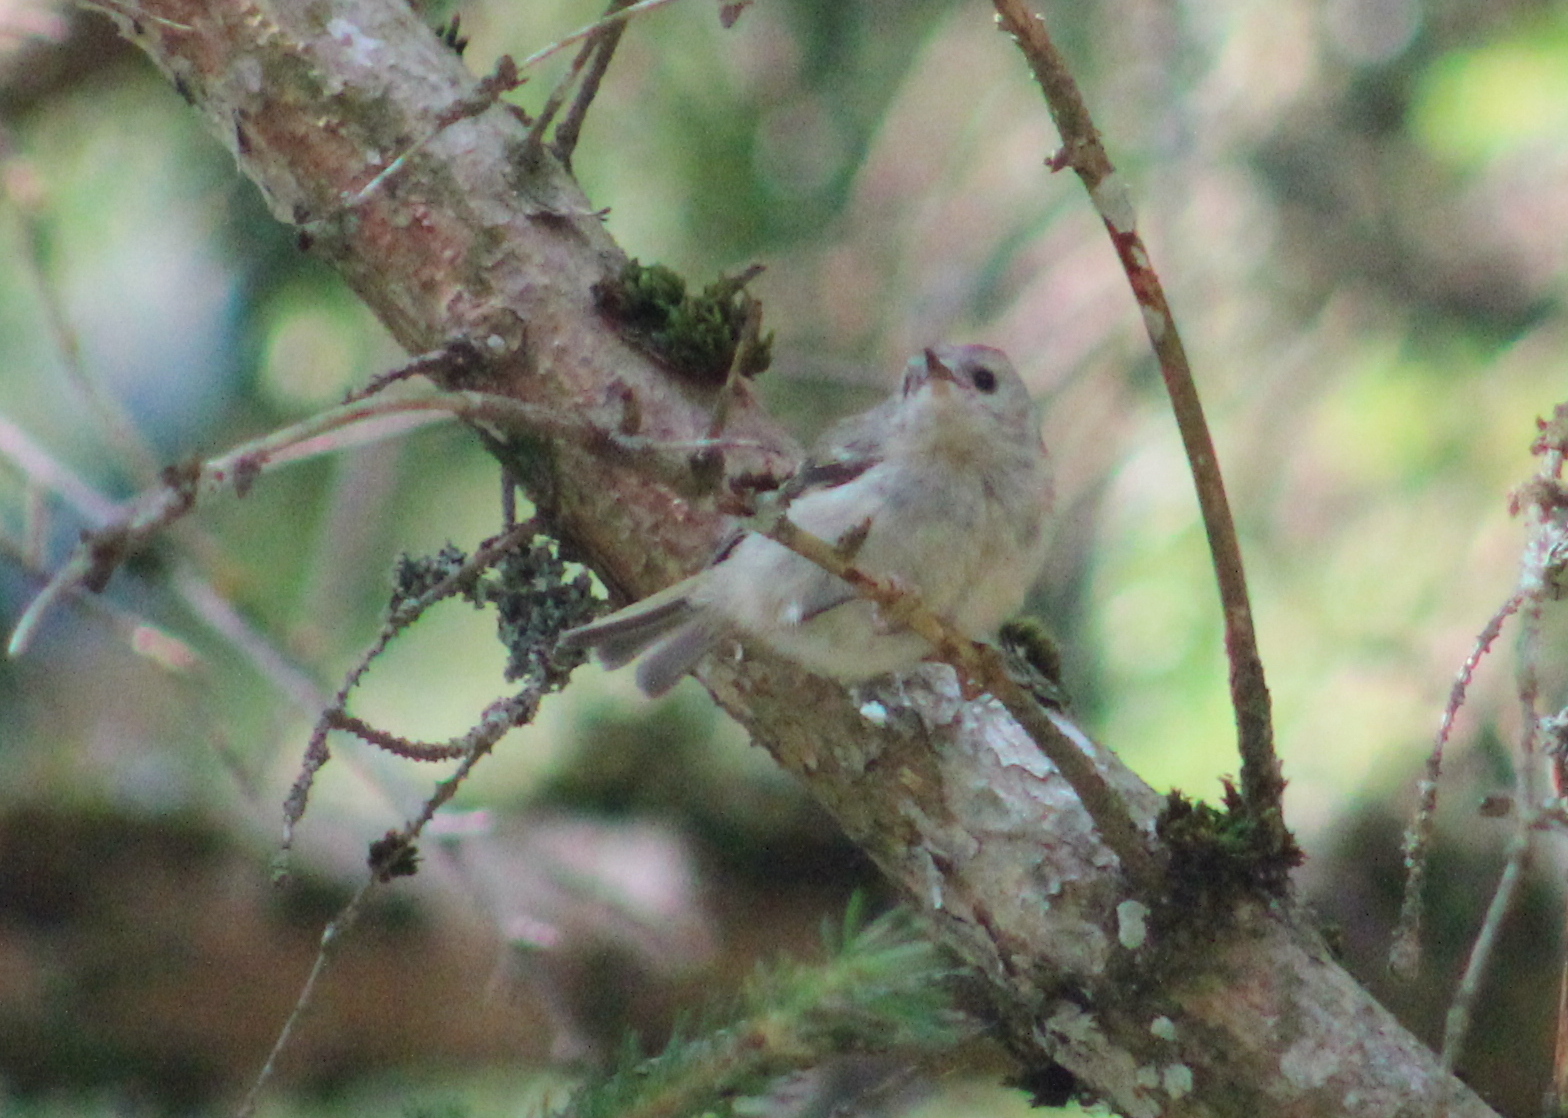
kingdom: Animalia
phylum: Chordata
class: Aves
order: Passeriformes
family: Regulidae
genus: Regulus
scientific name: Regulus regulus
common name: Goldcrest
